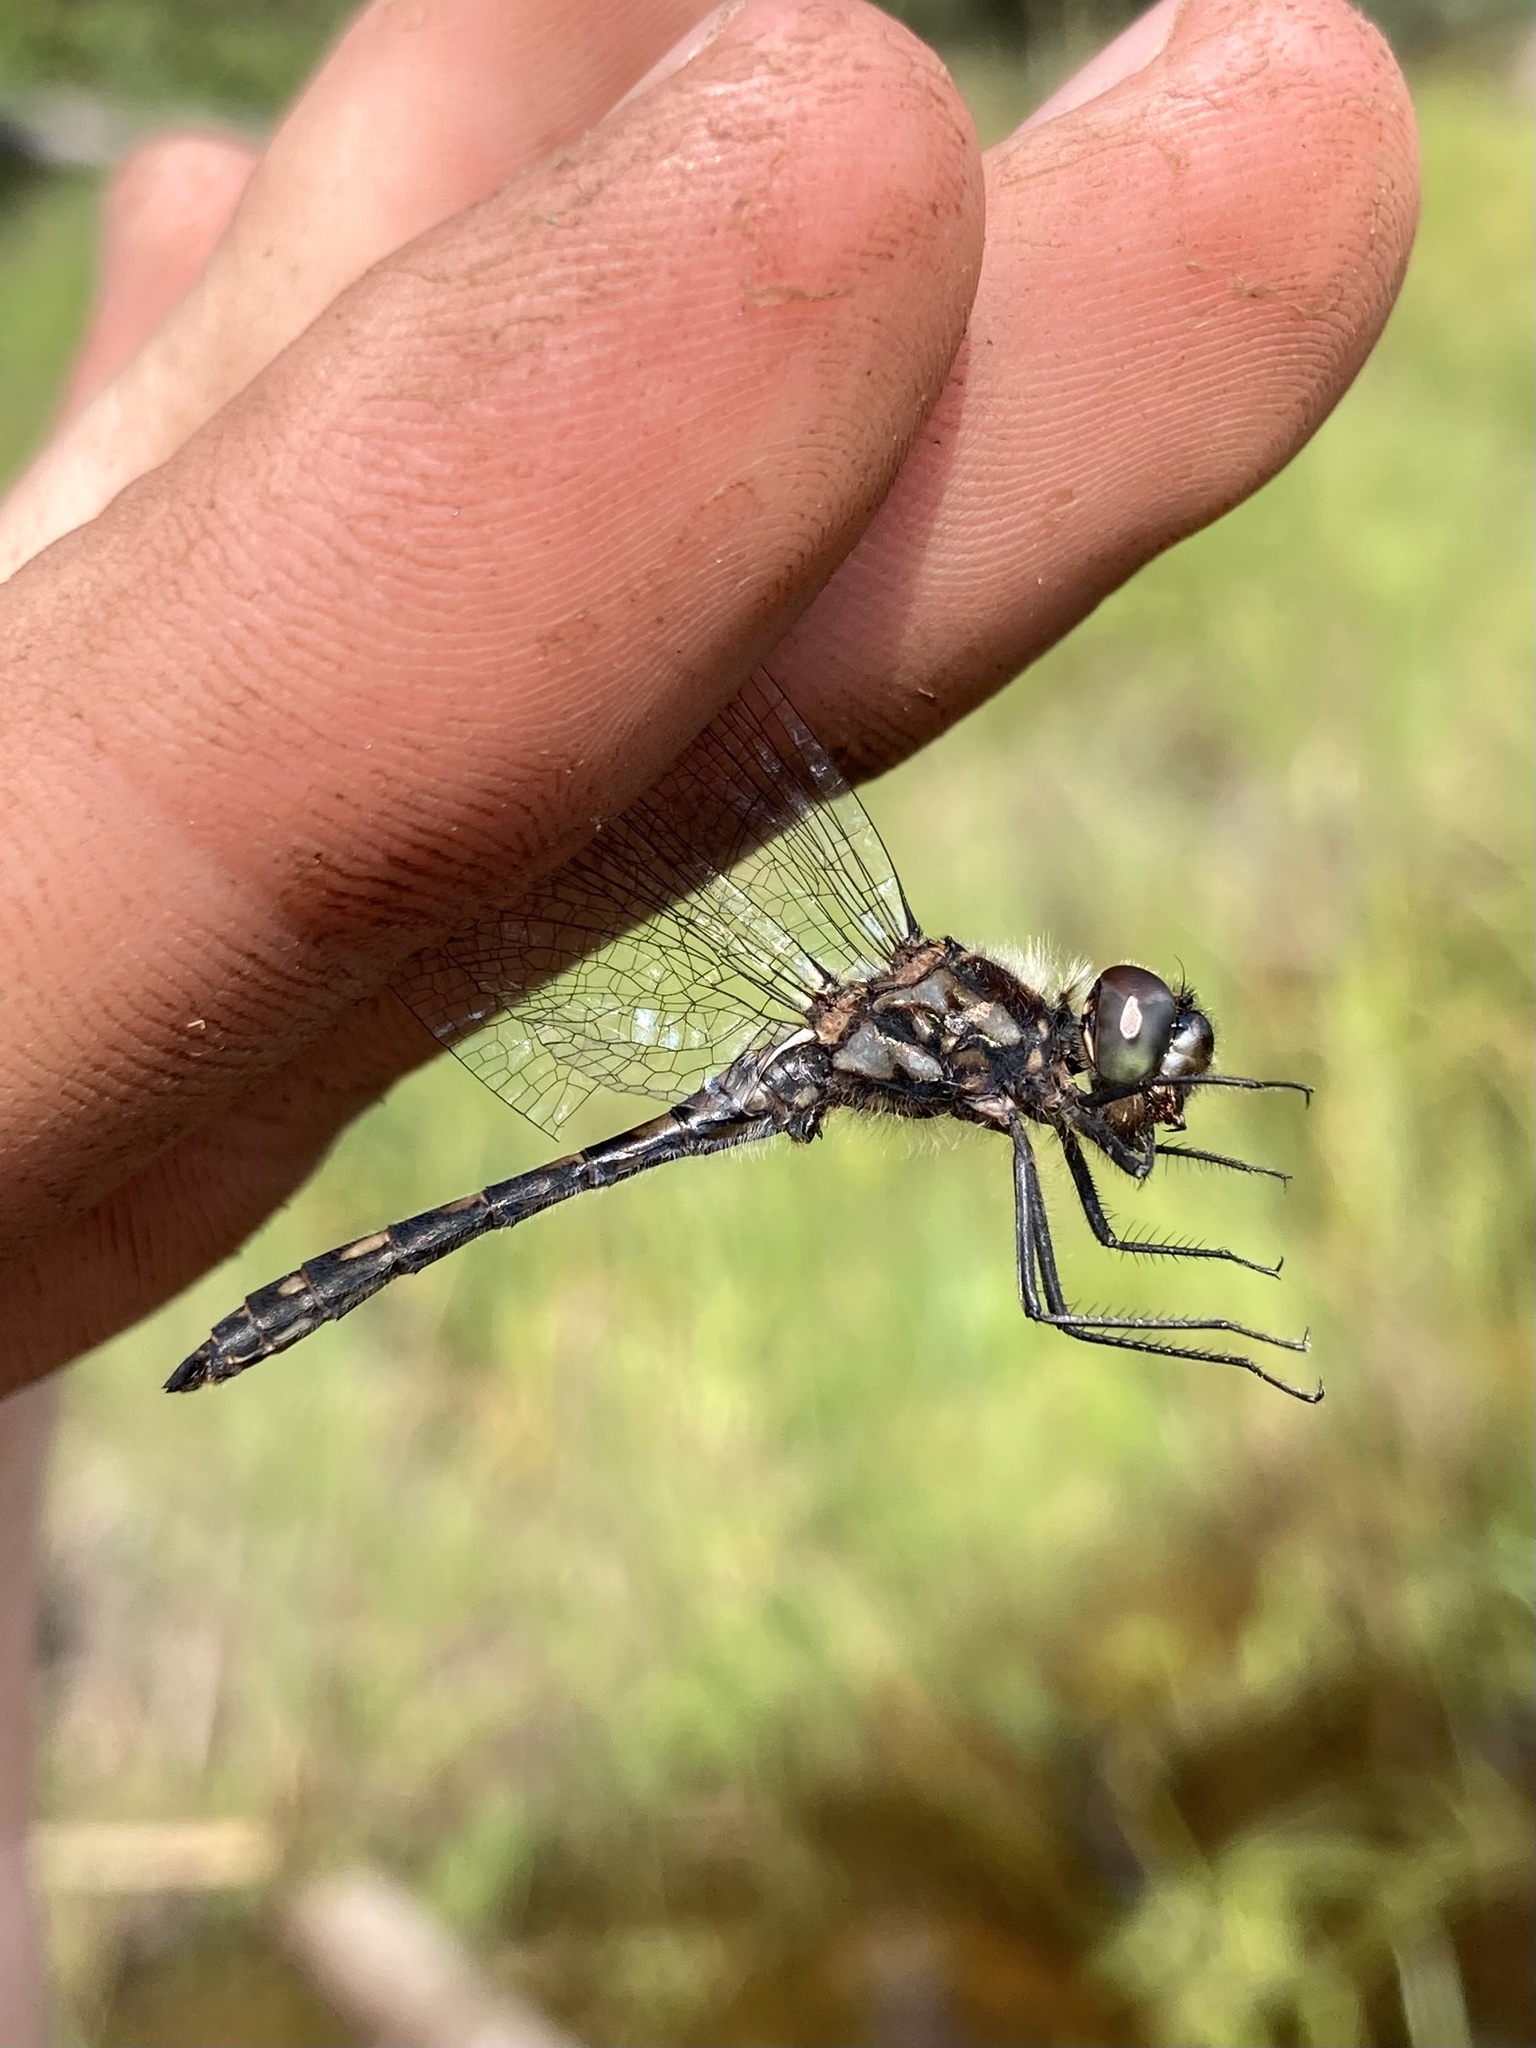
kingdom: Animalia
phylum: Arthropoda
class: Insecta
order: Odonata
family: Libellulidae
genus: Sympetrum
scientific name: Sympetrum danae
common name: Black darter
